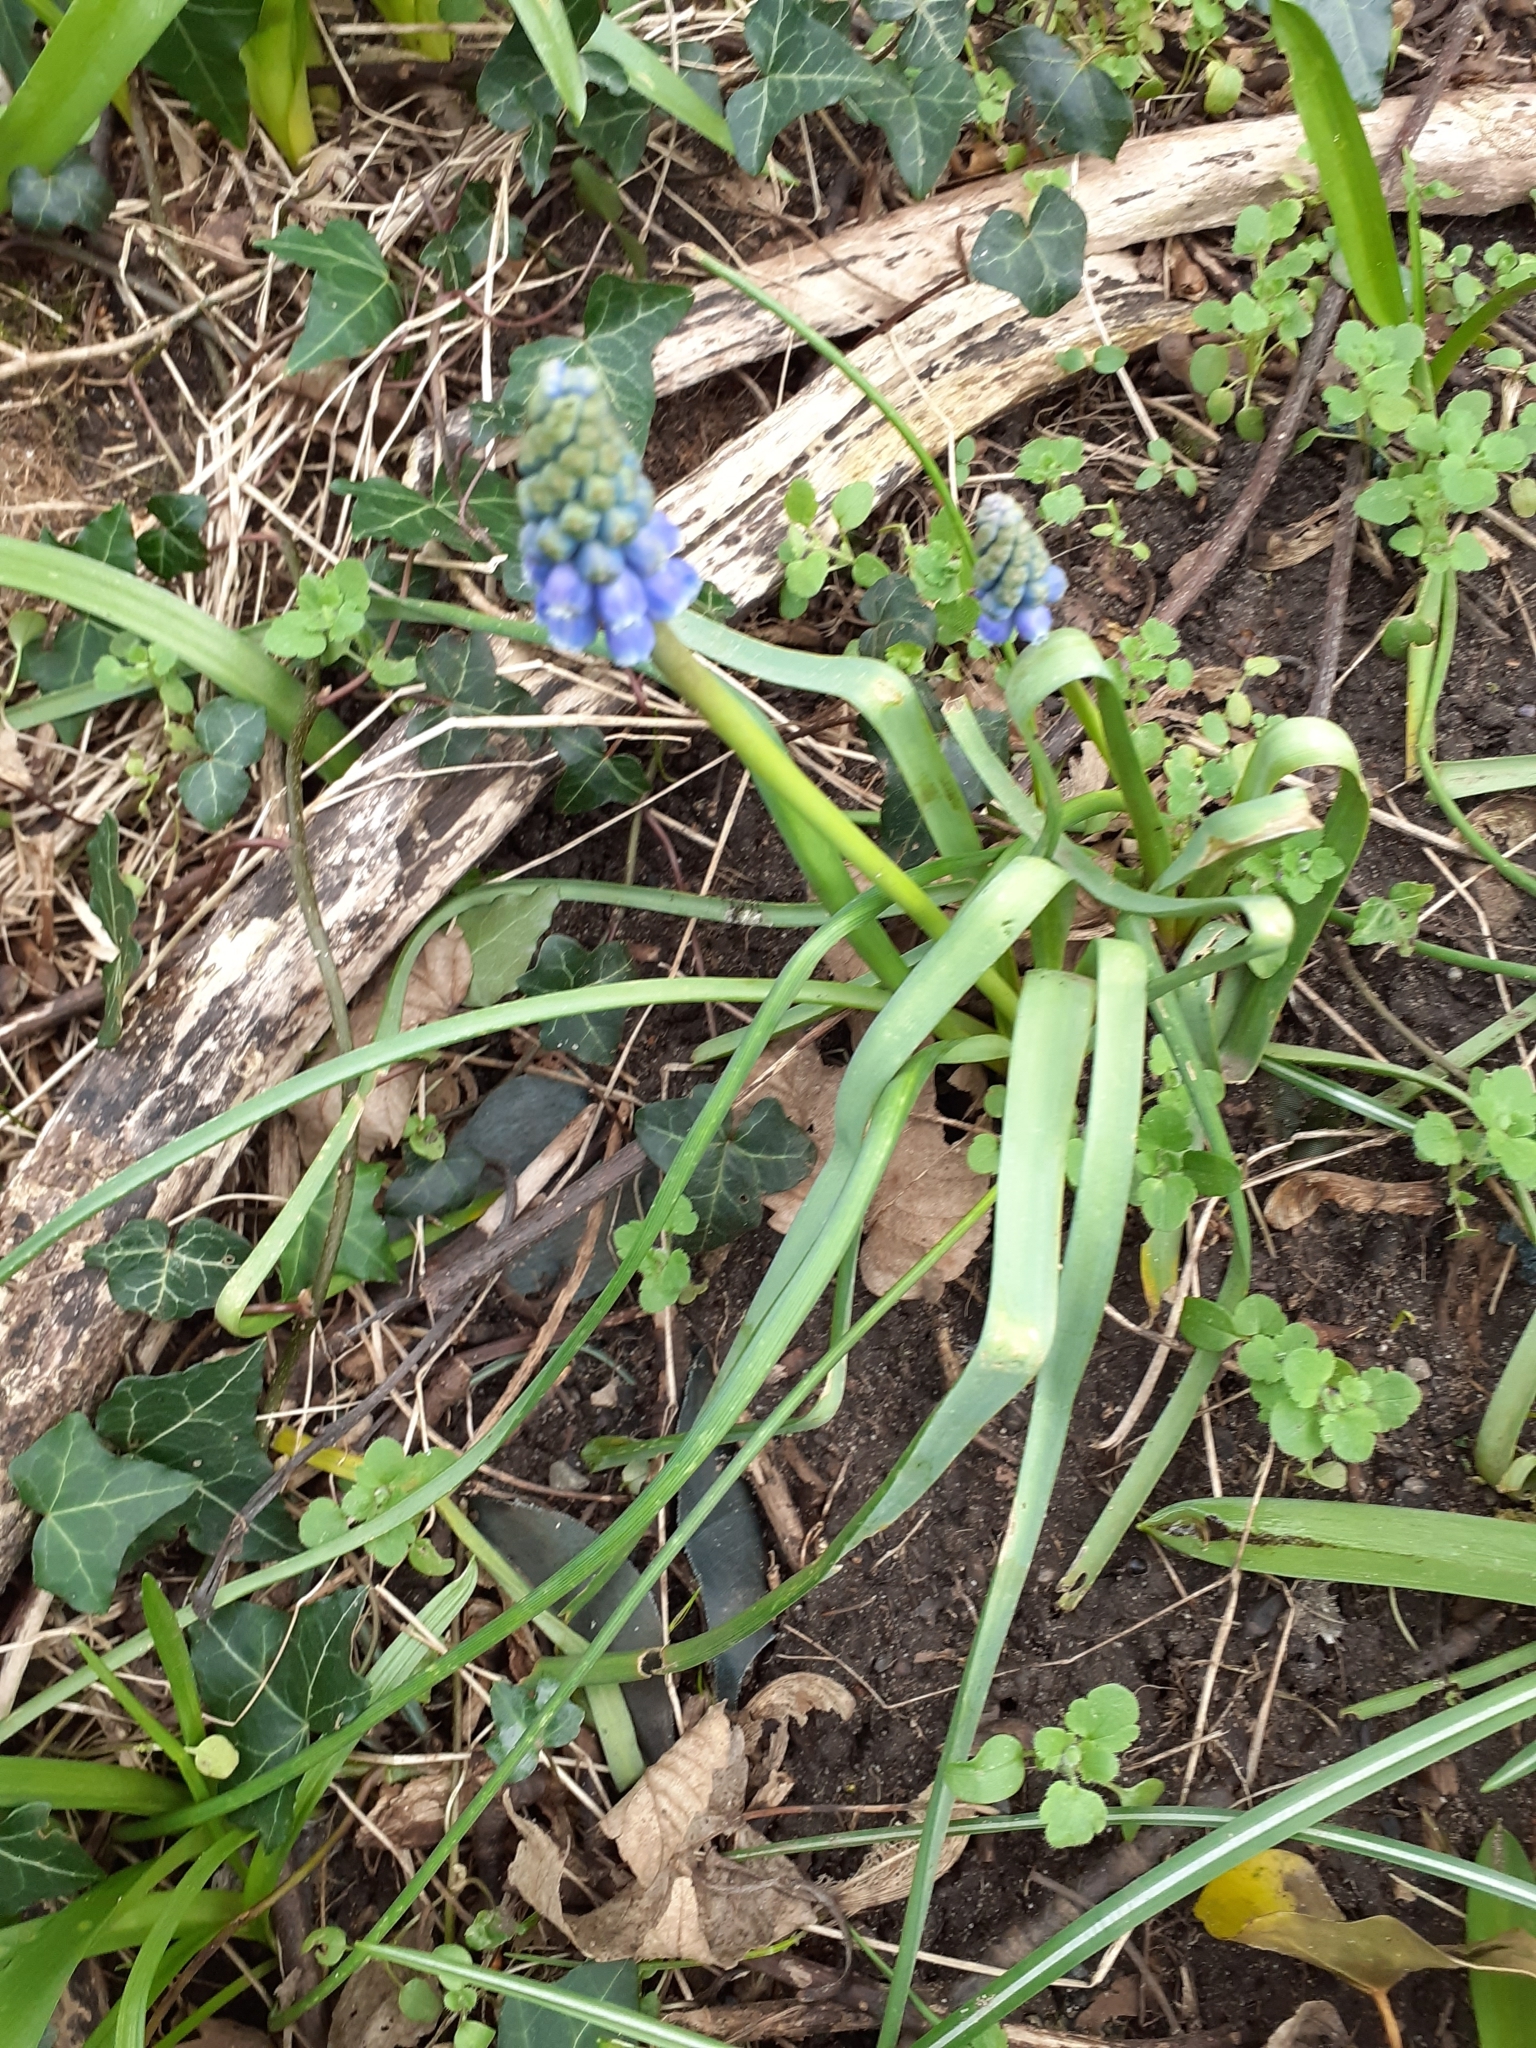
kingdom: Plantae
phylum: Tracheophyta
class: Liliopsida
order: Asparagales
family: Asparagaceae
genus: Muscari
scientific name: Muscari armeniacum
